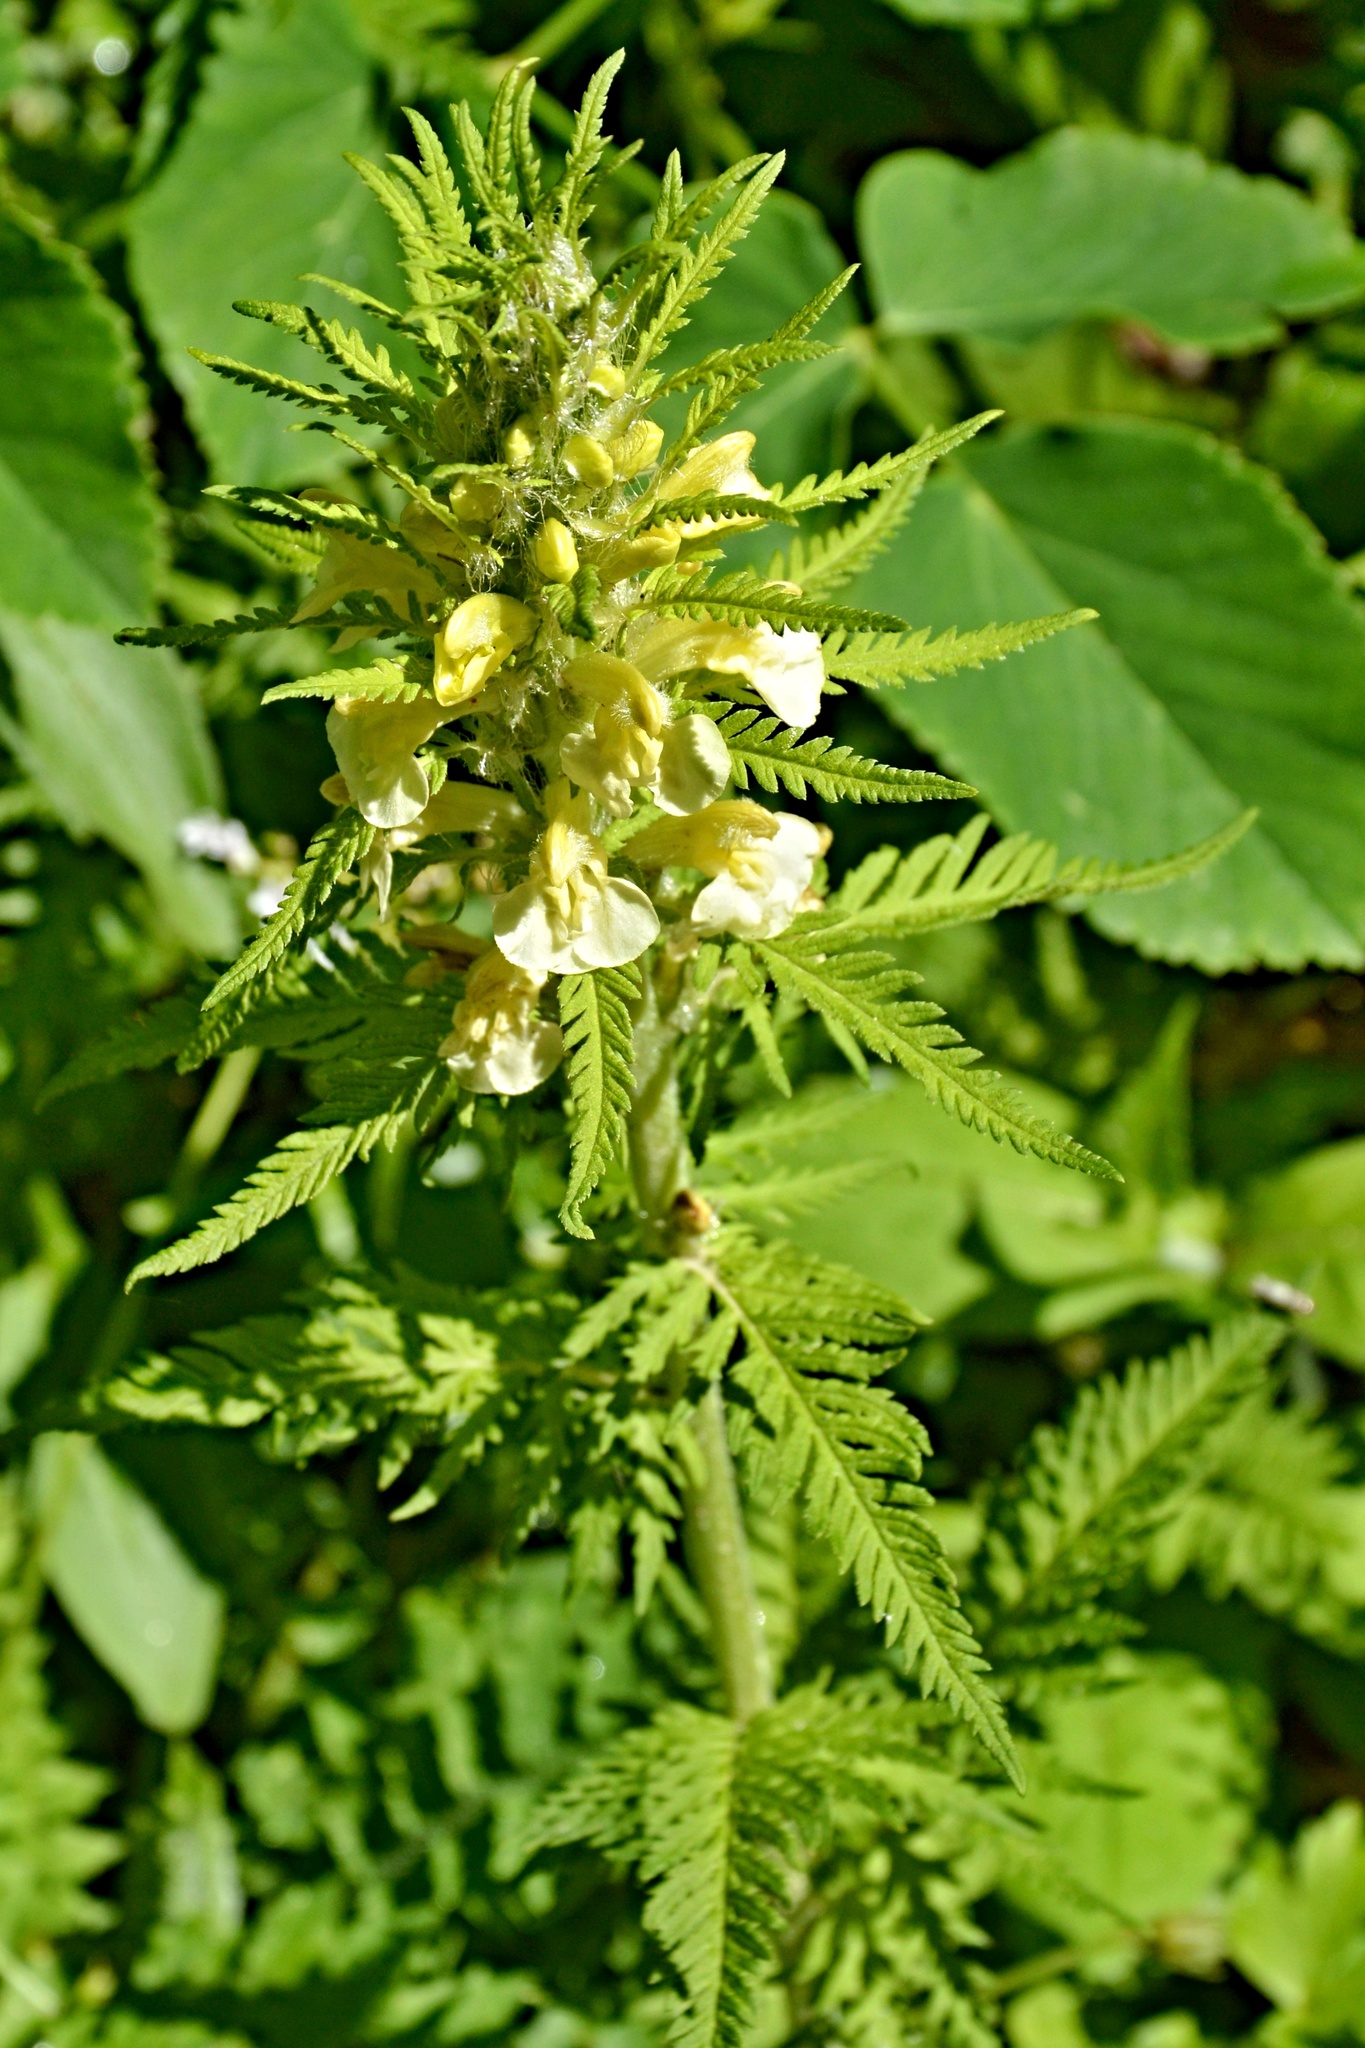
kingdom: Plantae
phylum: Tracheophyta
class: Magnoliopsida
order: Lamiales
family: Orobanchaceae
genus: Pedicularis
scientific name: Pedicularis hacquetii
